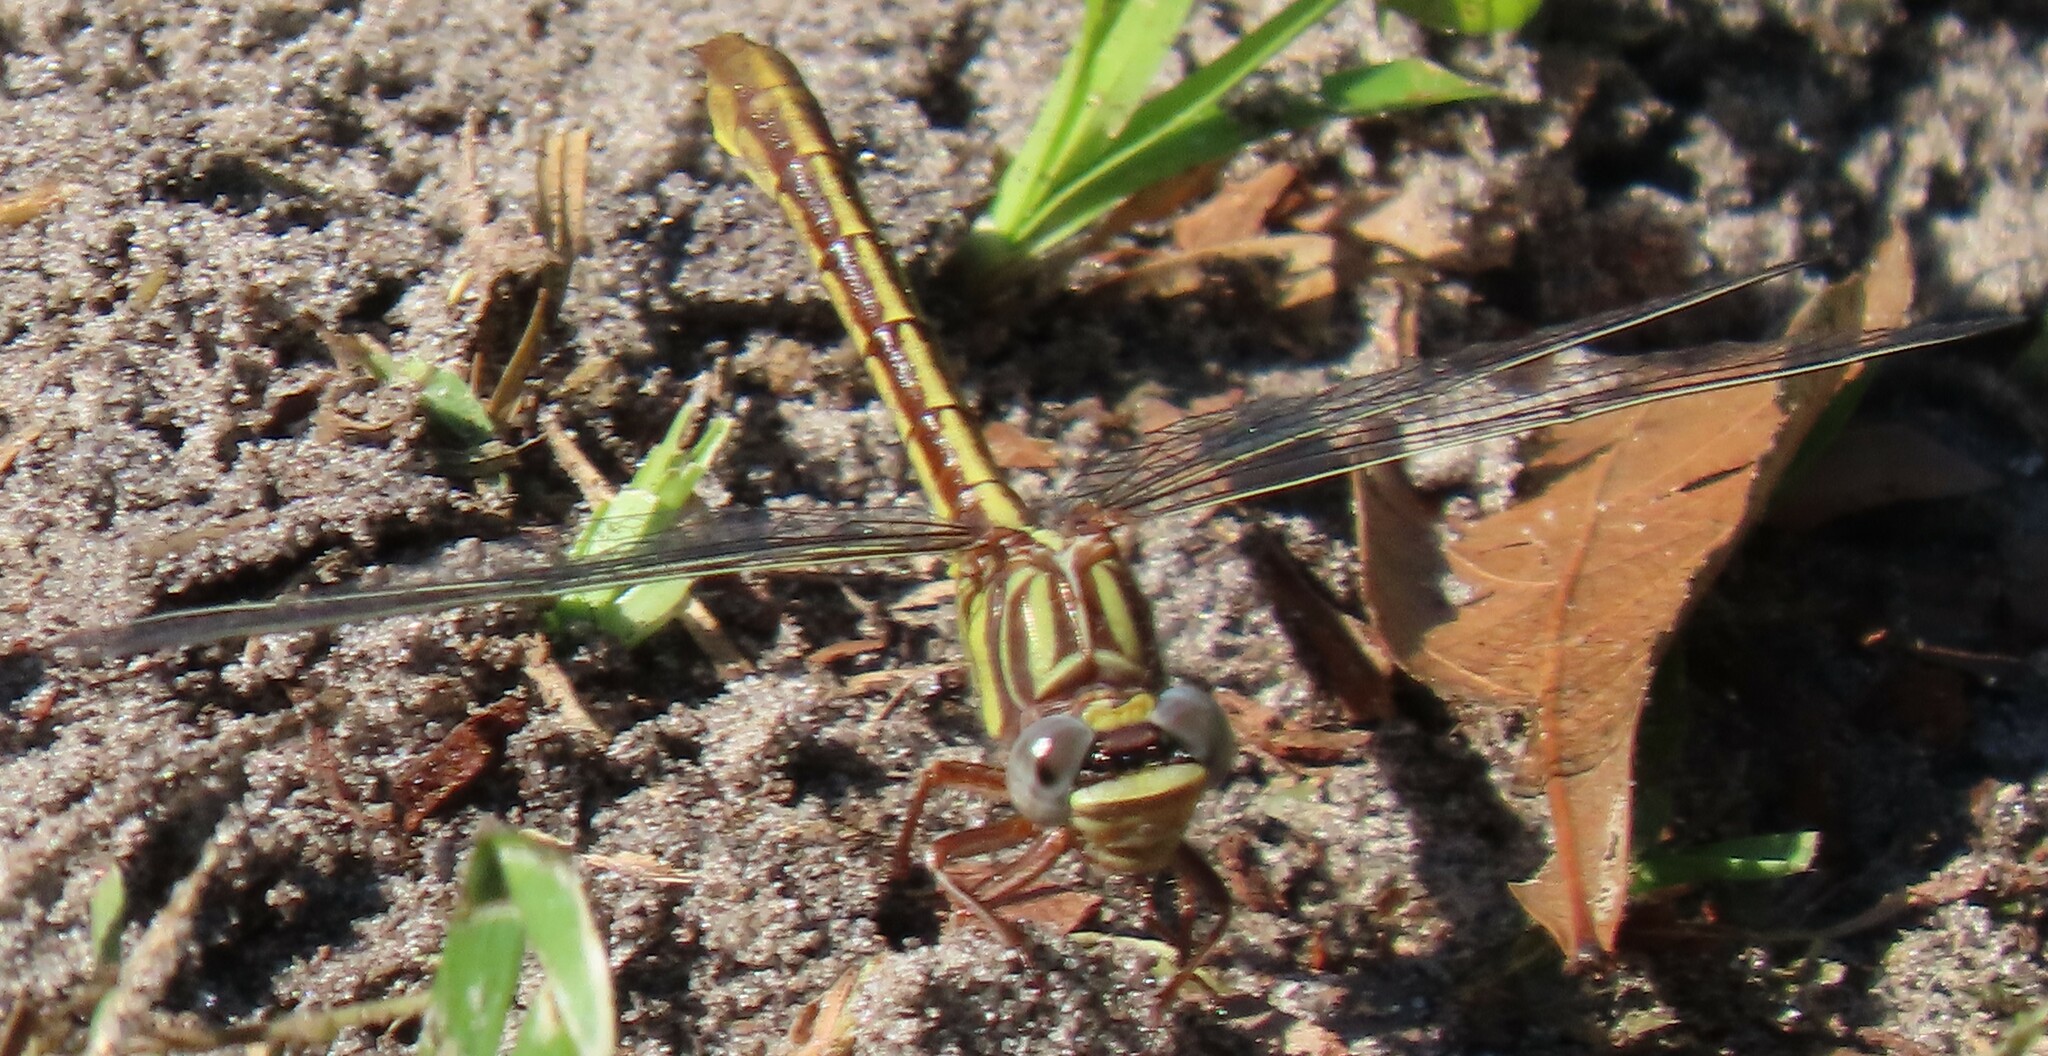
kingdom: Animalia
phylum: Arthropoda
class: Insecta
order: Odonata
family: Gomphidae
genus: Phanogomphus
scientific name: Phanogomphus minutus
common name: Cypress clubtail
